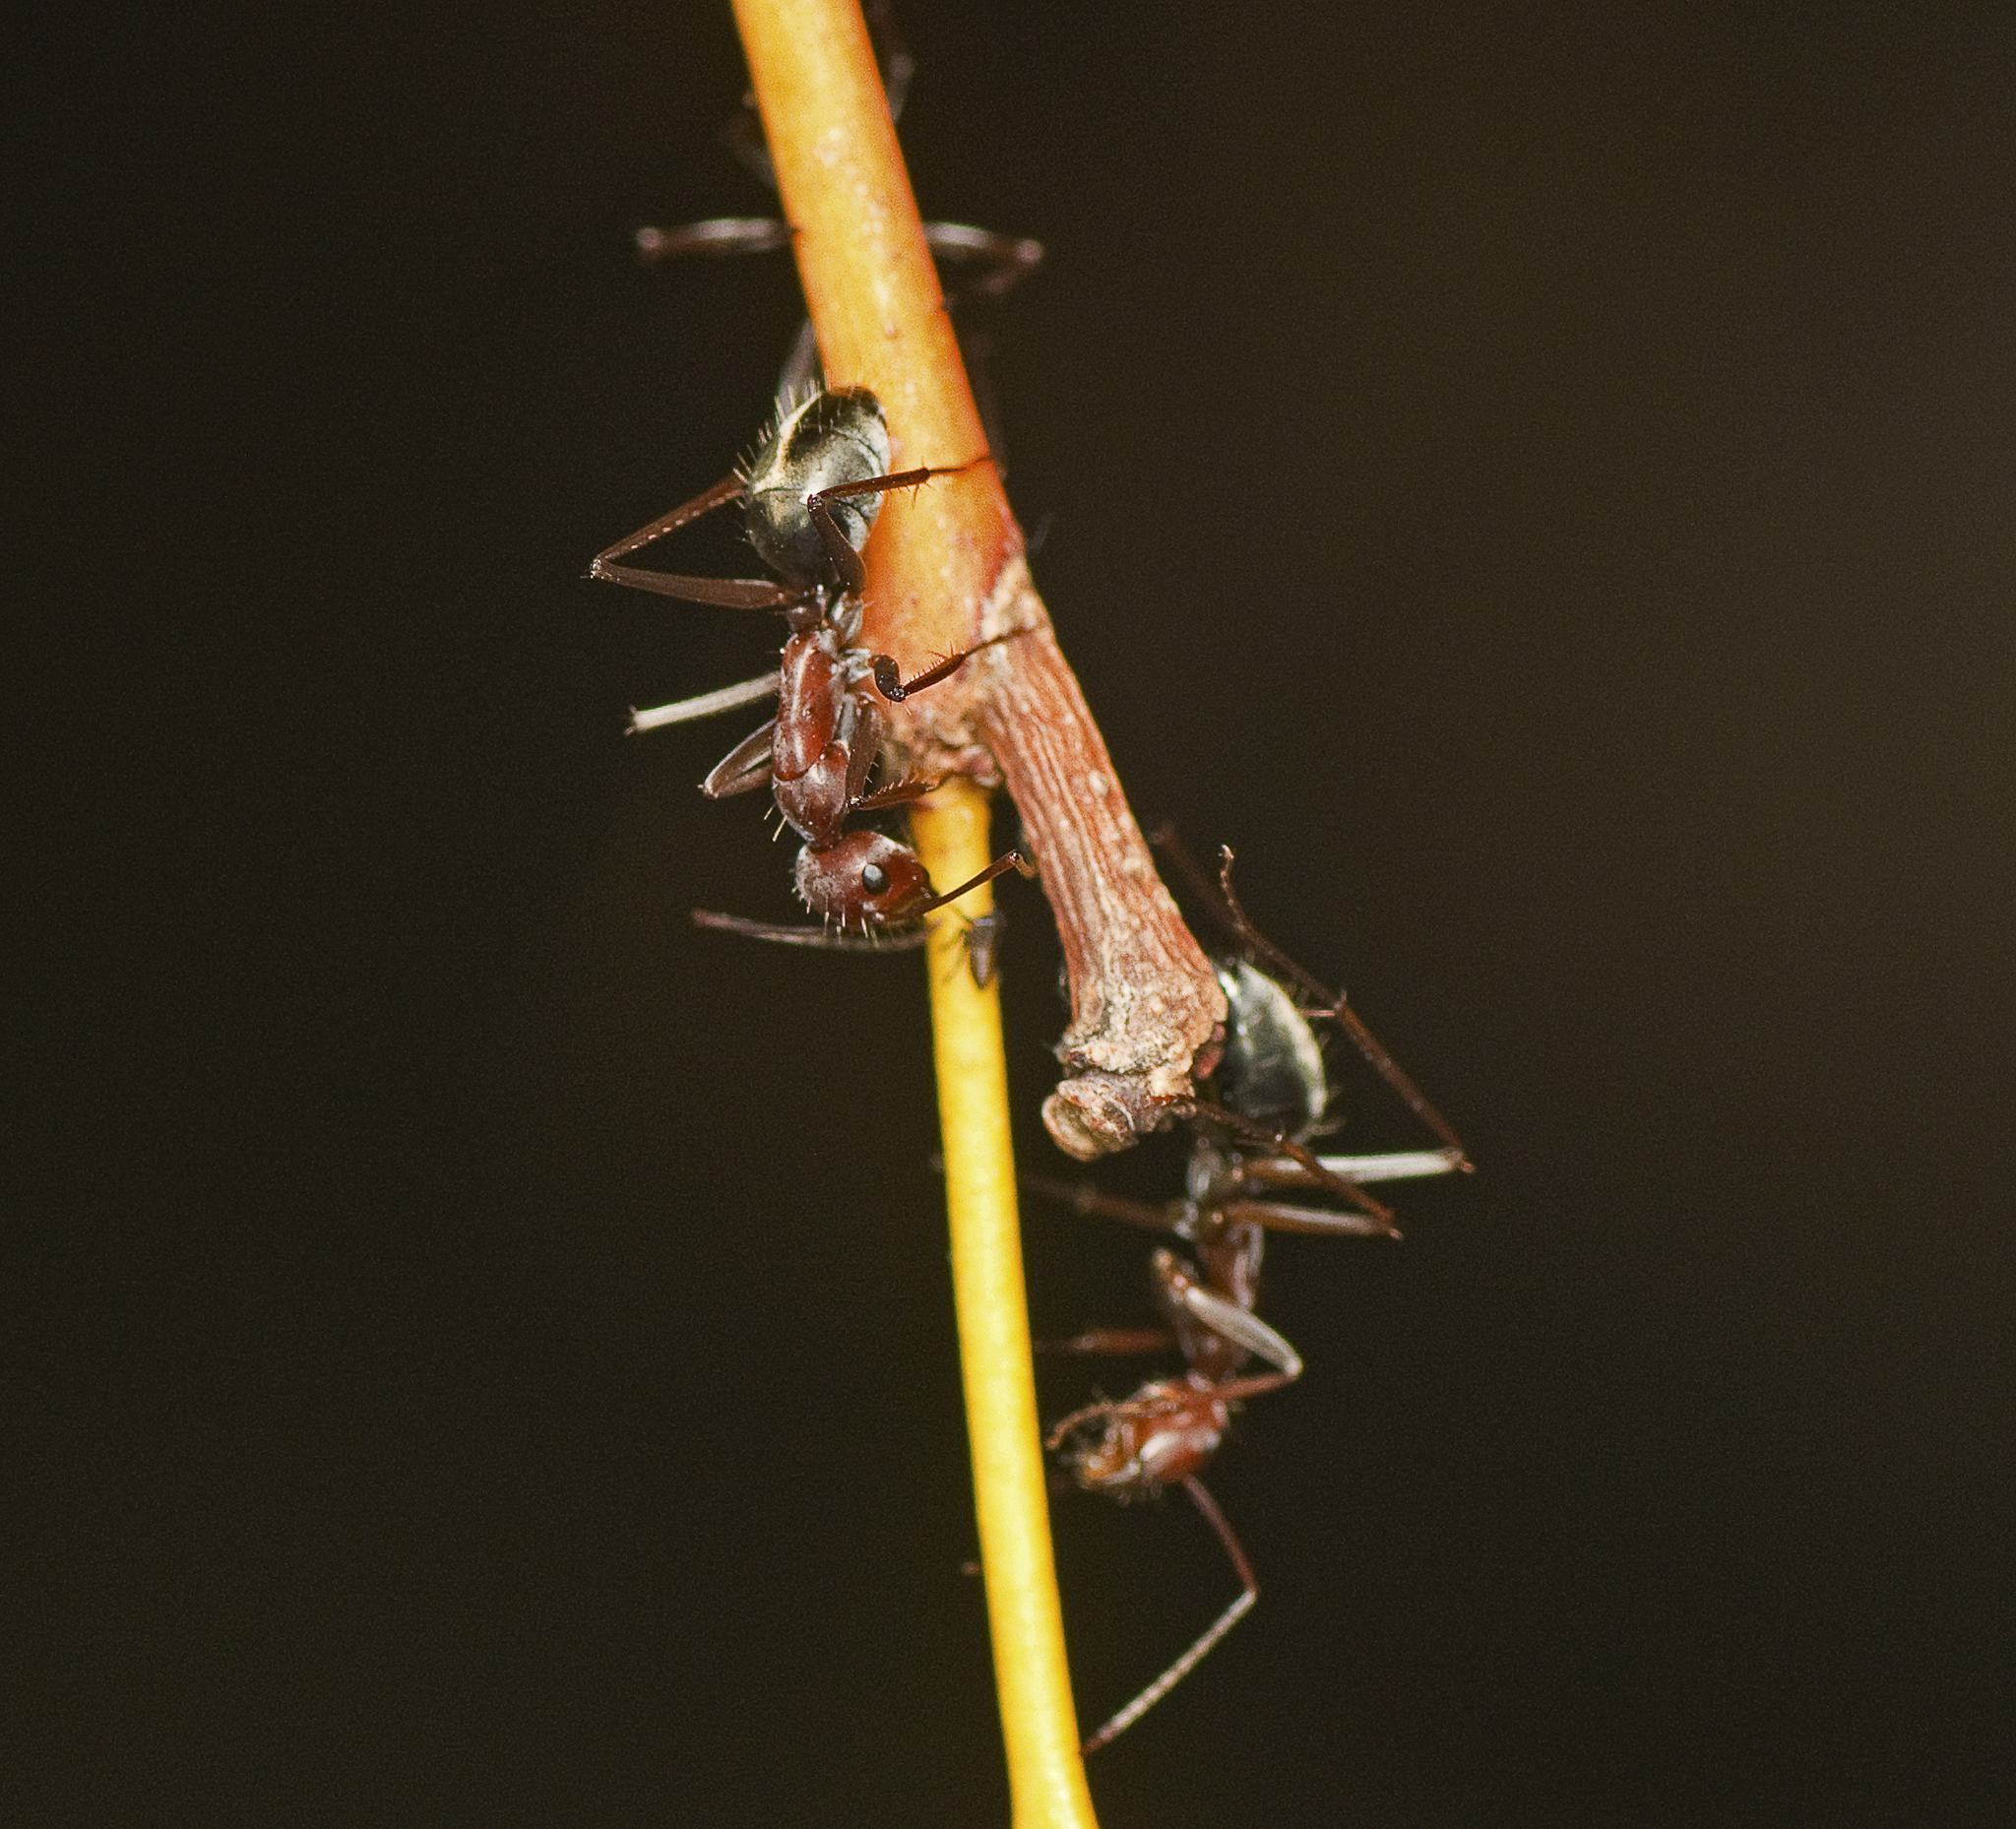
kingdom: Animalia
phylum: Arthropoda
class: Insecta
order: Hymenoptera
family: Formicidae
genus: Camponotus
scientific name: Camponotus wiederkehri
